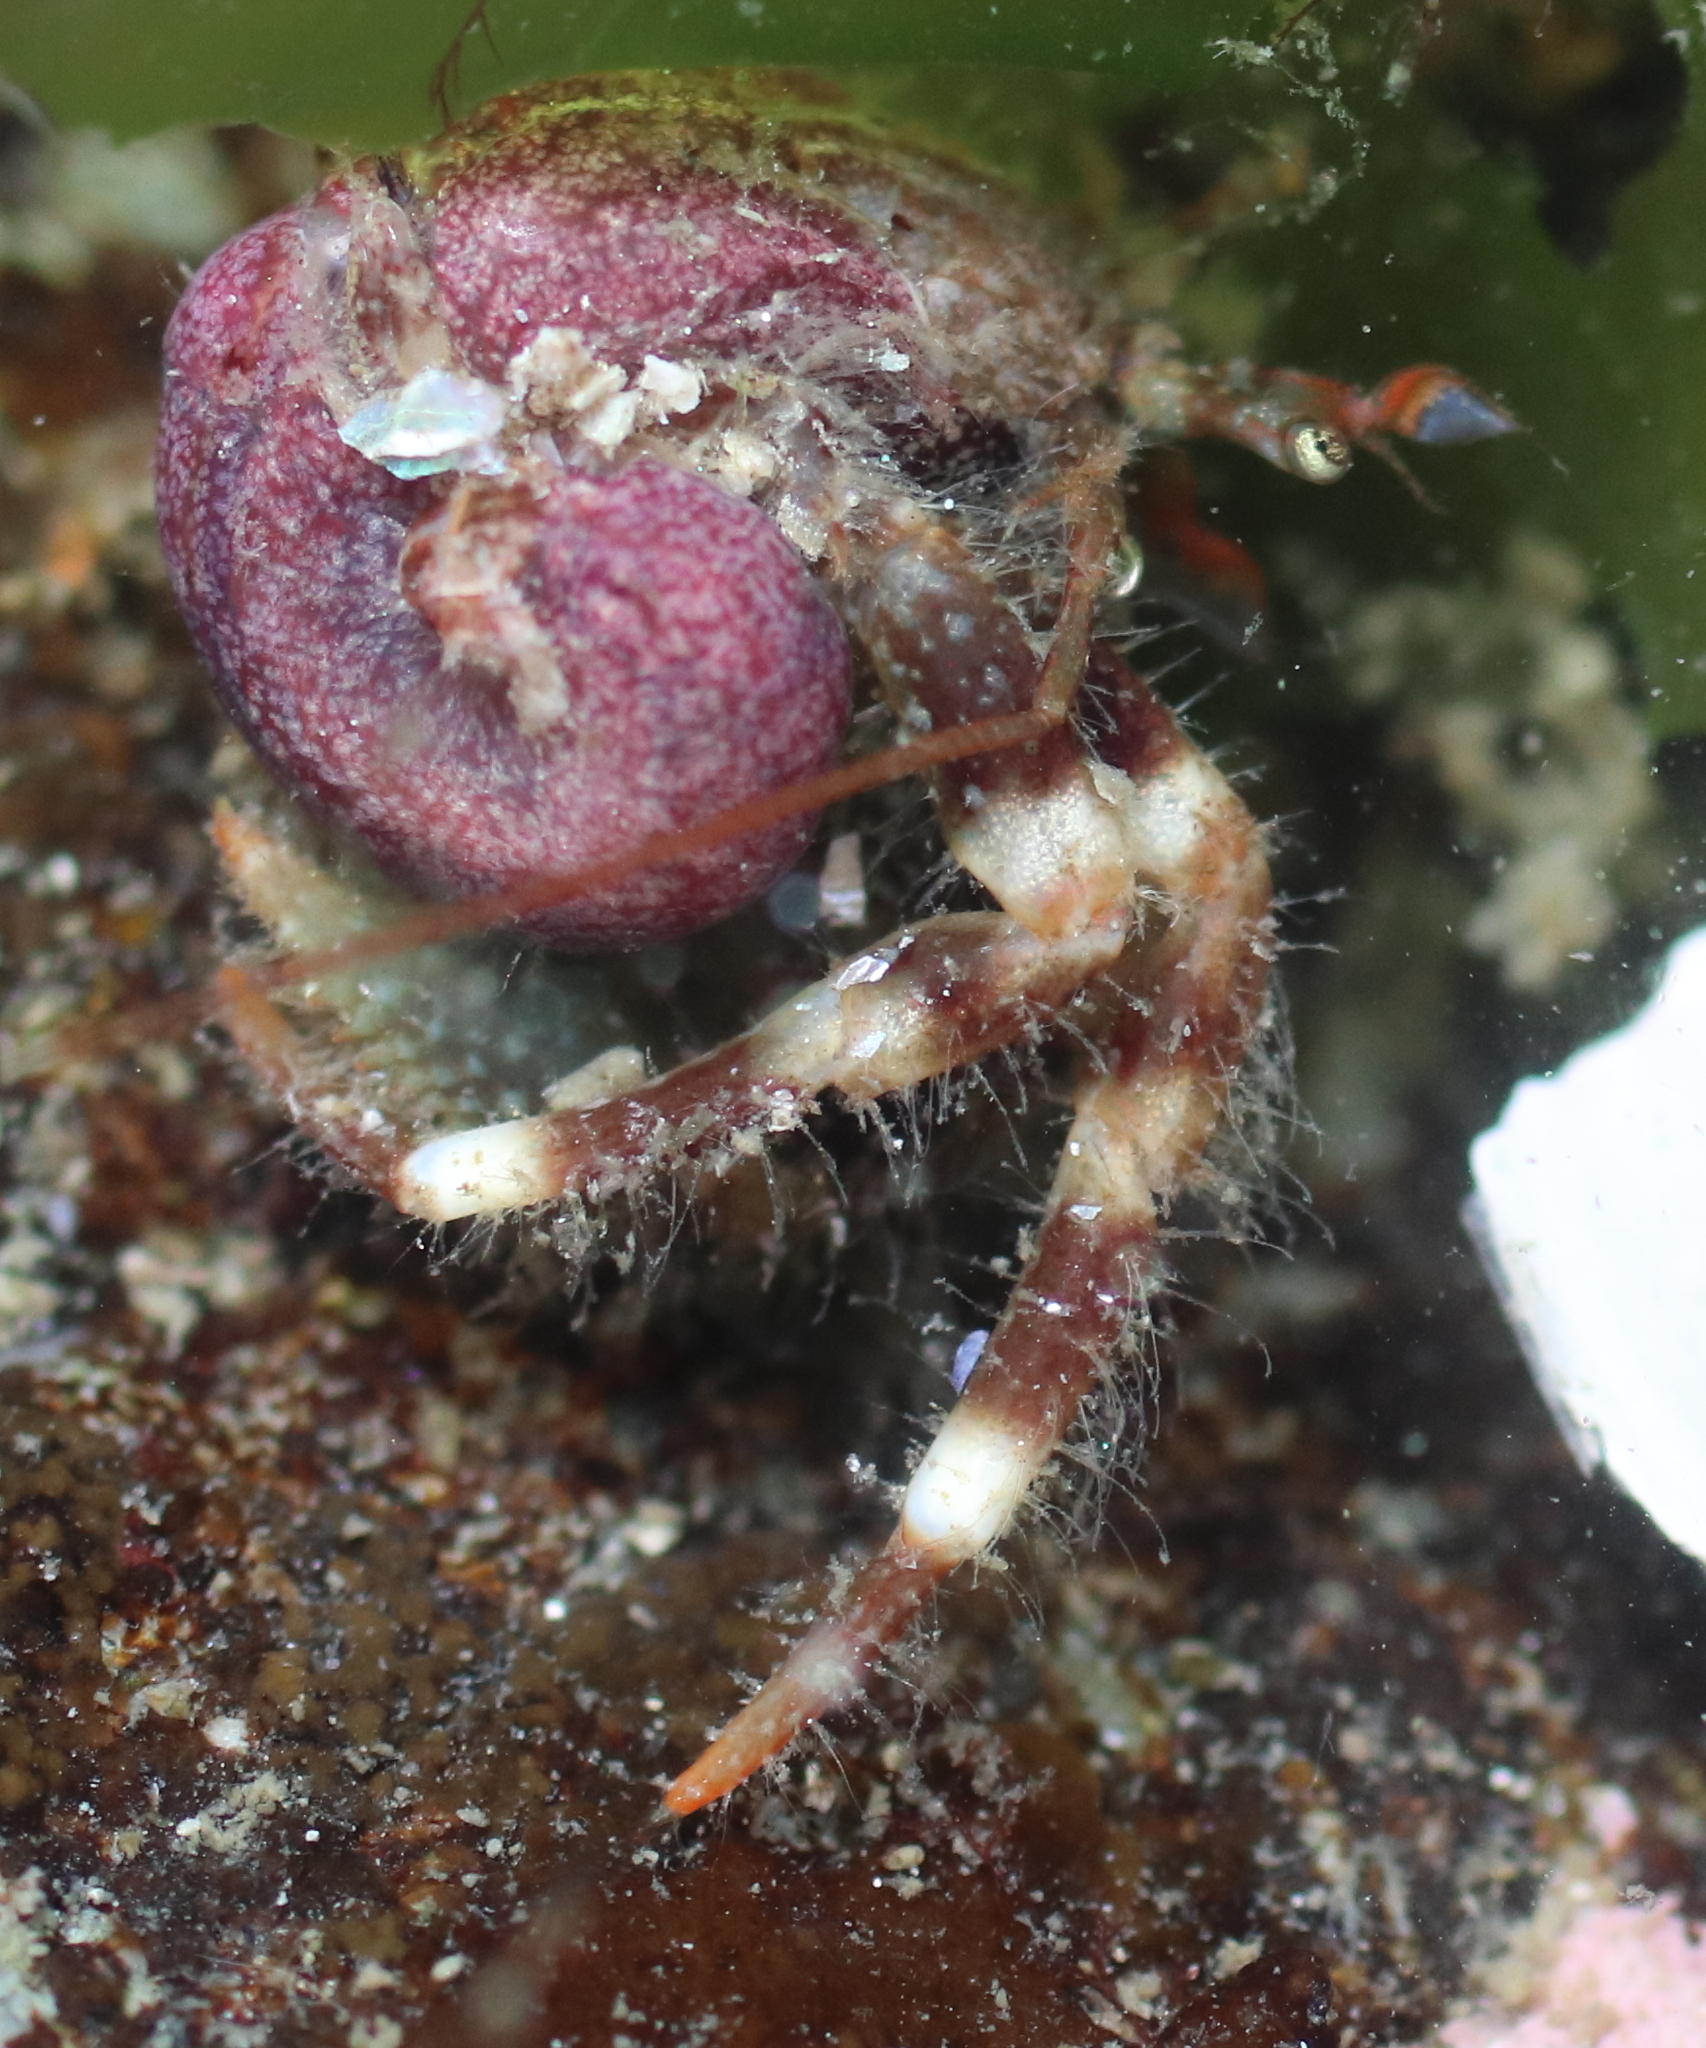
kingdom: Animalia
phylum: Arthropoda
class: Malacostraca
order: Decapoda
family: Paguridae
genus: Pagurus
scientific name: Pagurus caurinus
